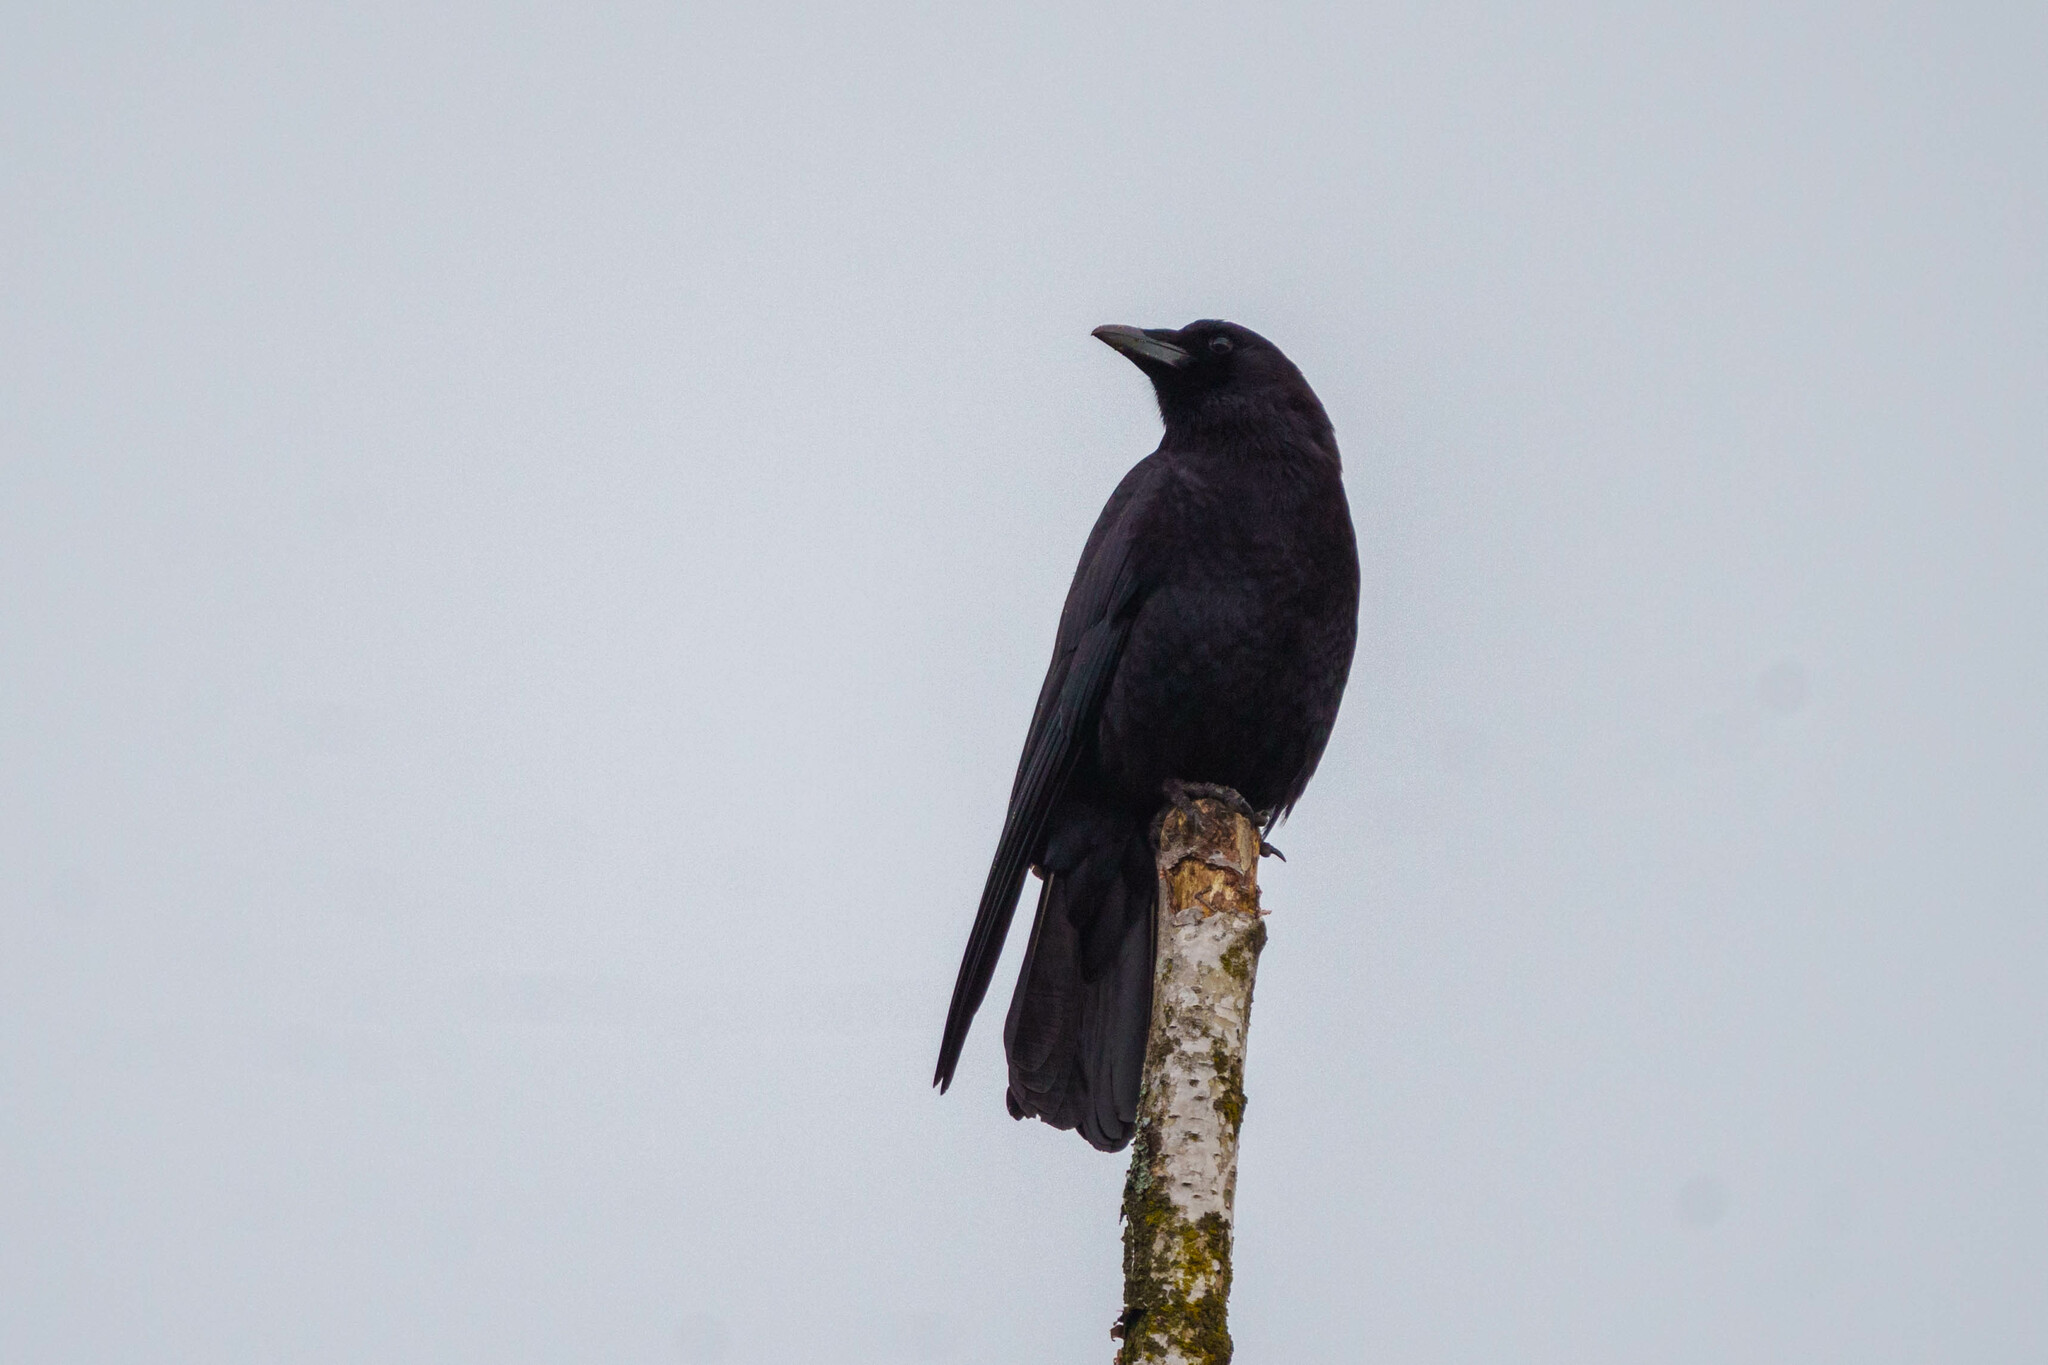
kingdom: Animalia
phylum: Chordata
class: Aves
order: Passeriformes
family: Corvidae
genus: Corvus
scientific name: Corvus brachyrhynchos
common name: American crow
